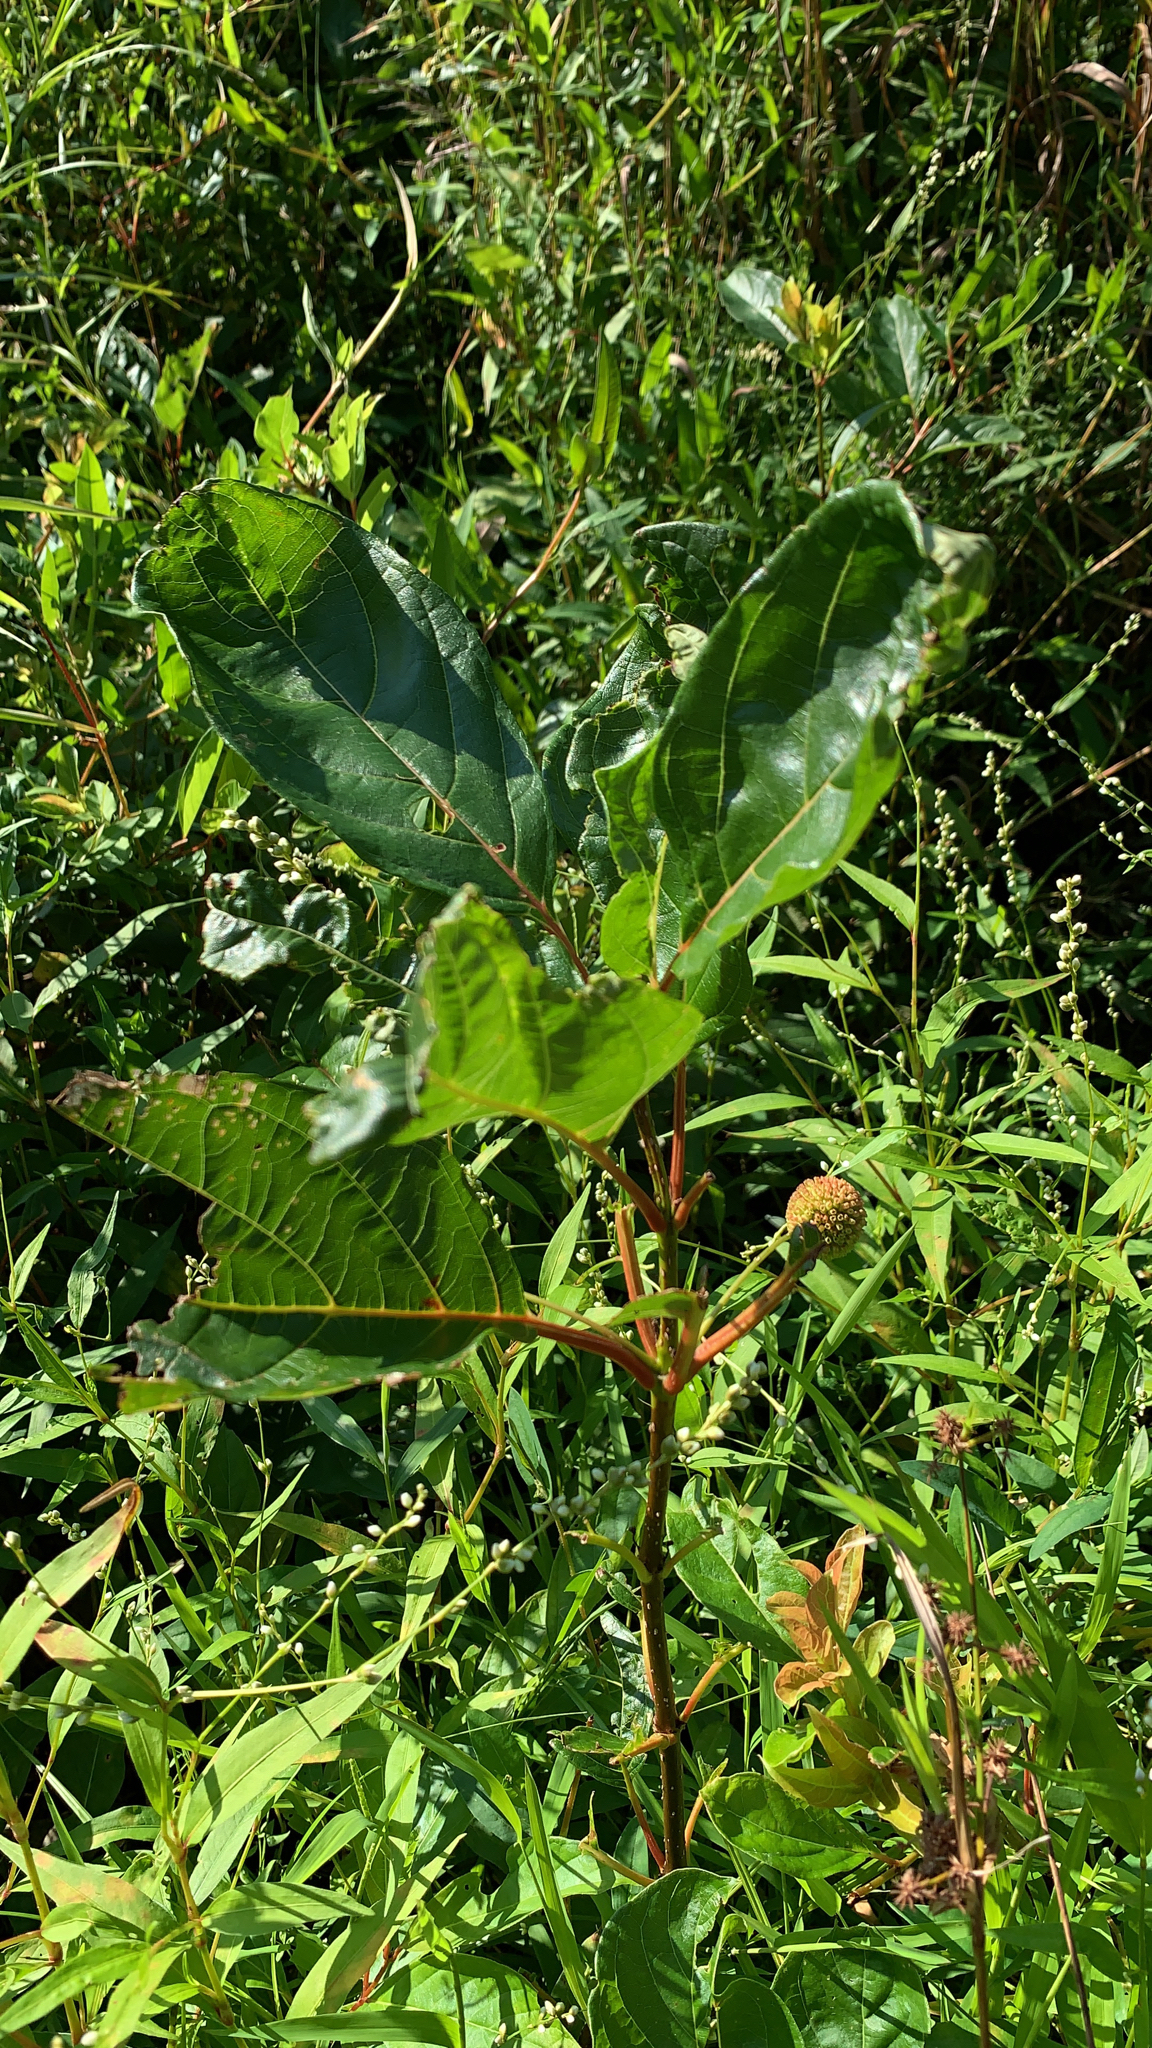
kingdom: Plantae
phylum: Tracheophyta
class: Magnoliopsida
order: Gentianales
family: Rubiaceae
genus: Cephalanthus
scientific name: Cephalanthus occidentalis
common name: Button-willow
